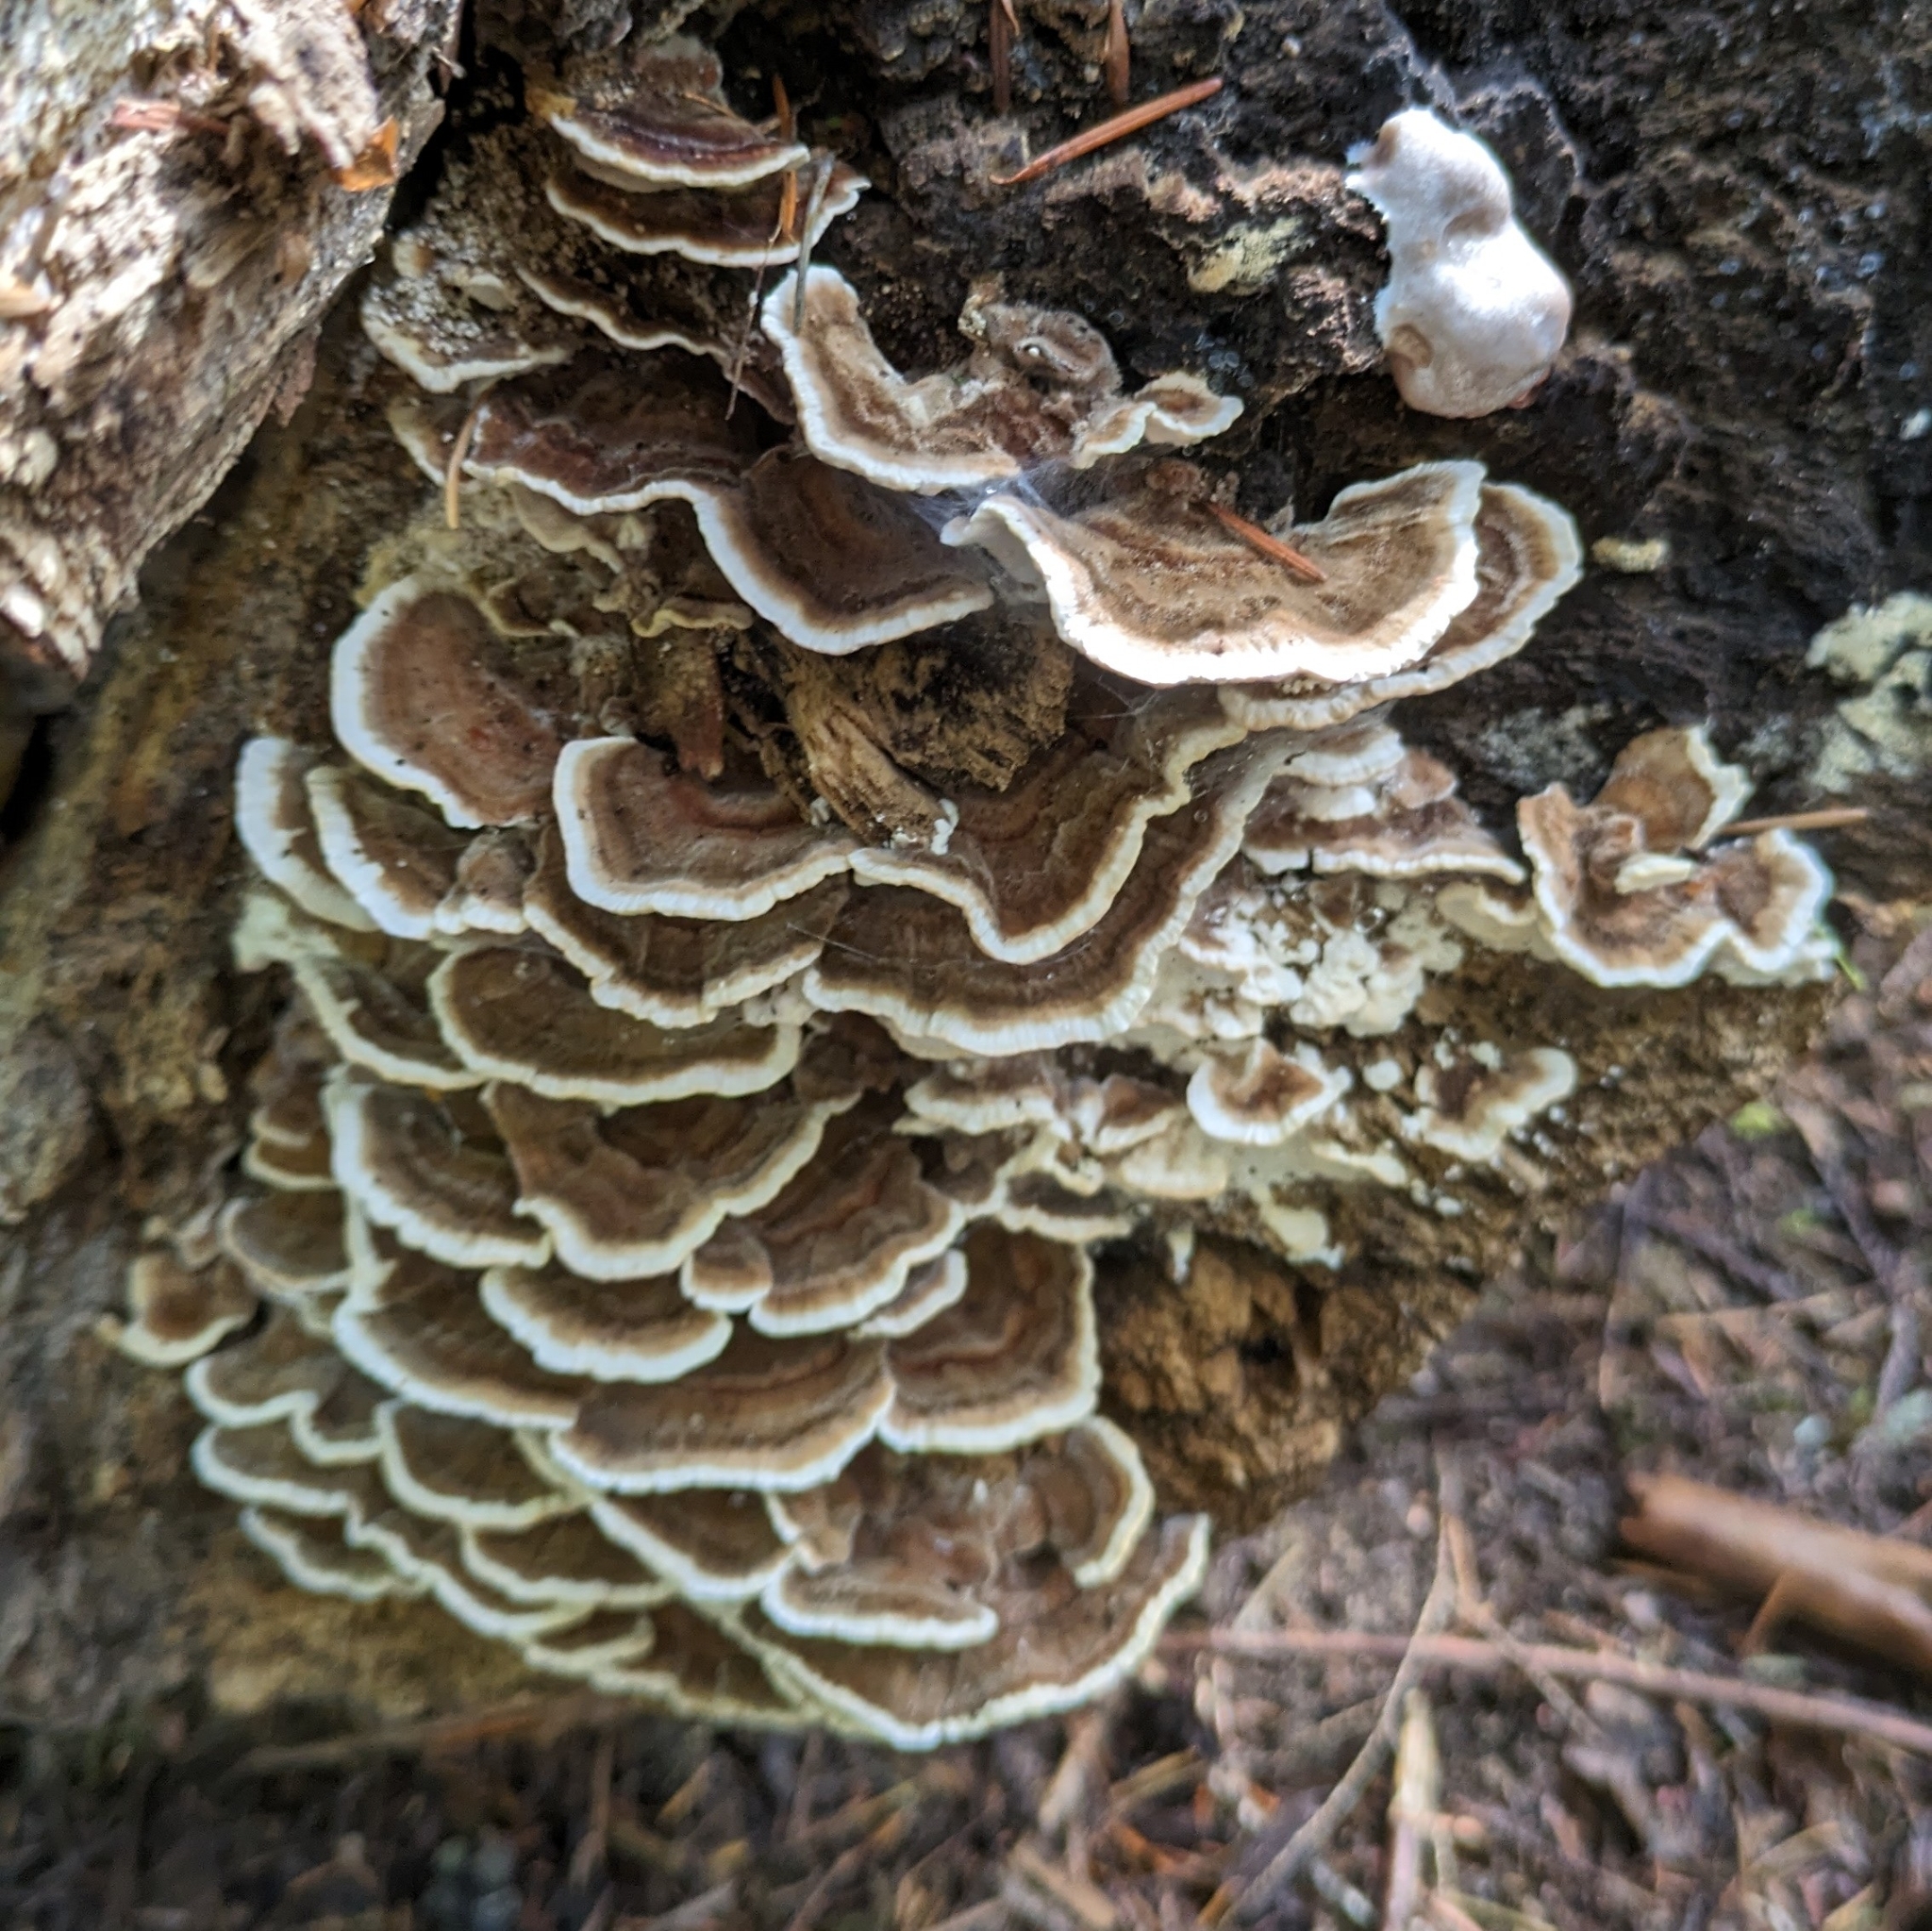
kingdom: Fungi
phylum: Basidiomycota
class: Agaricomycetes
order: Polyporales
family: Polyporaceae
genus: Trametes
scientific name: Trametes versicolor
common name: Turkeytail
